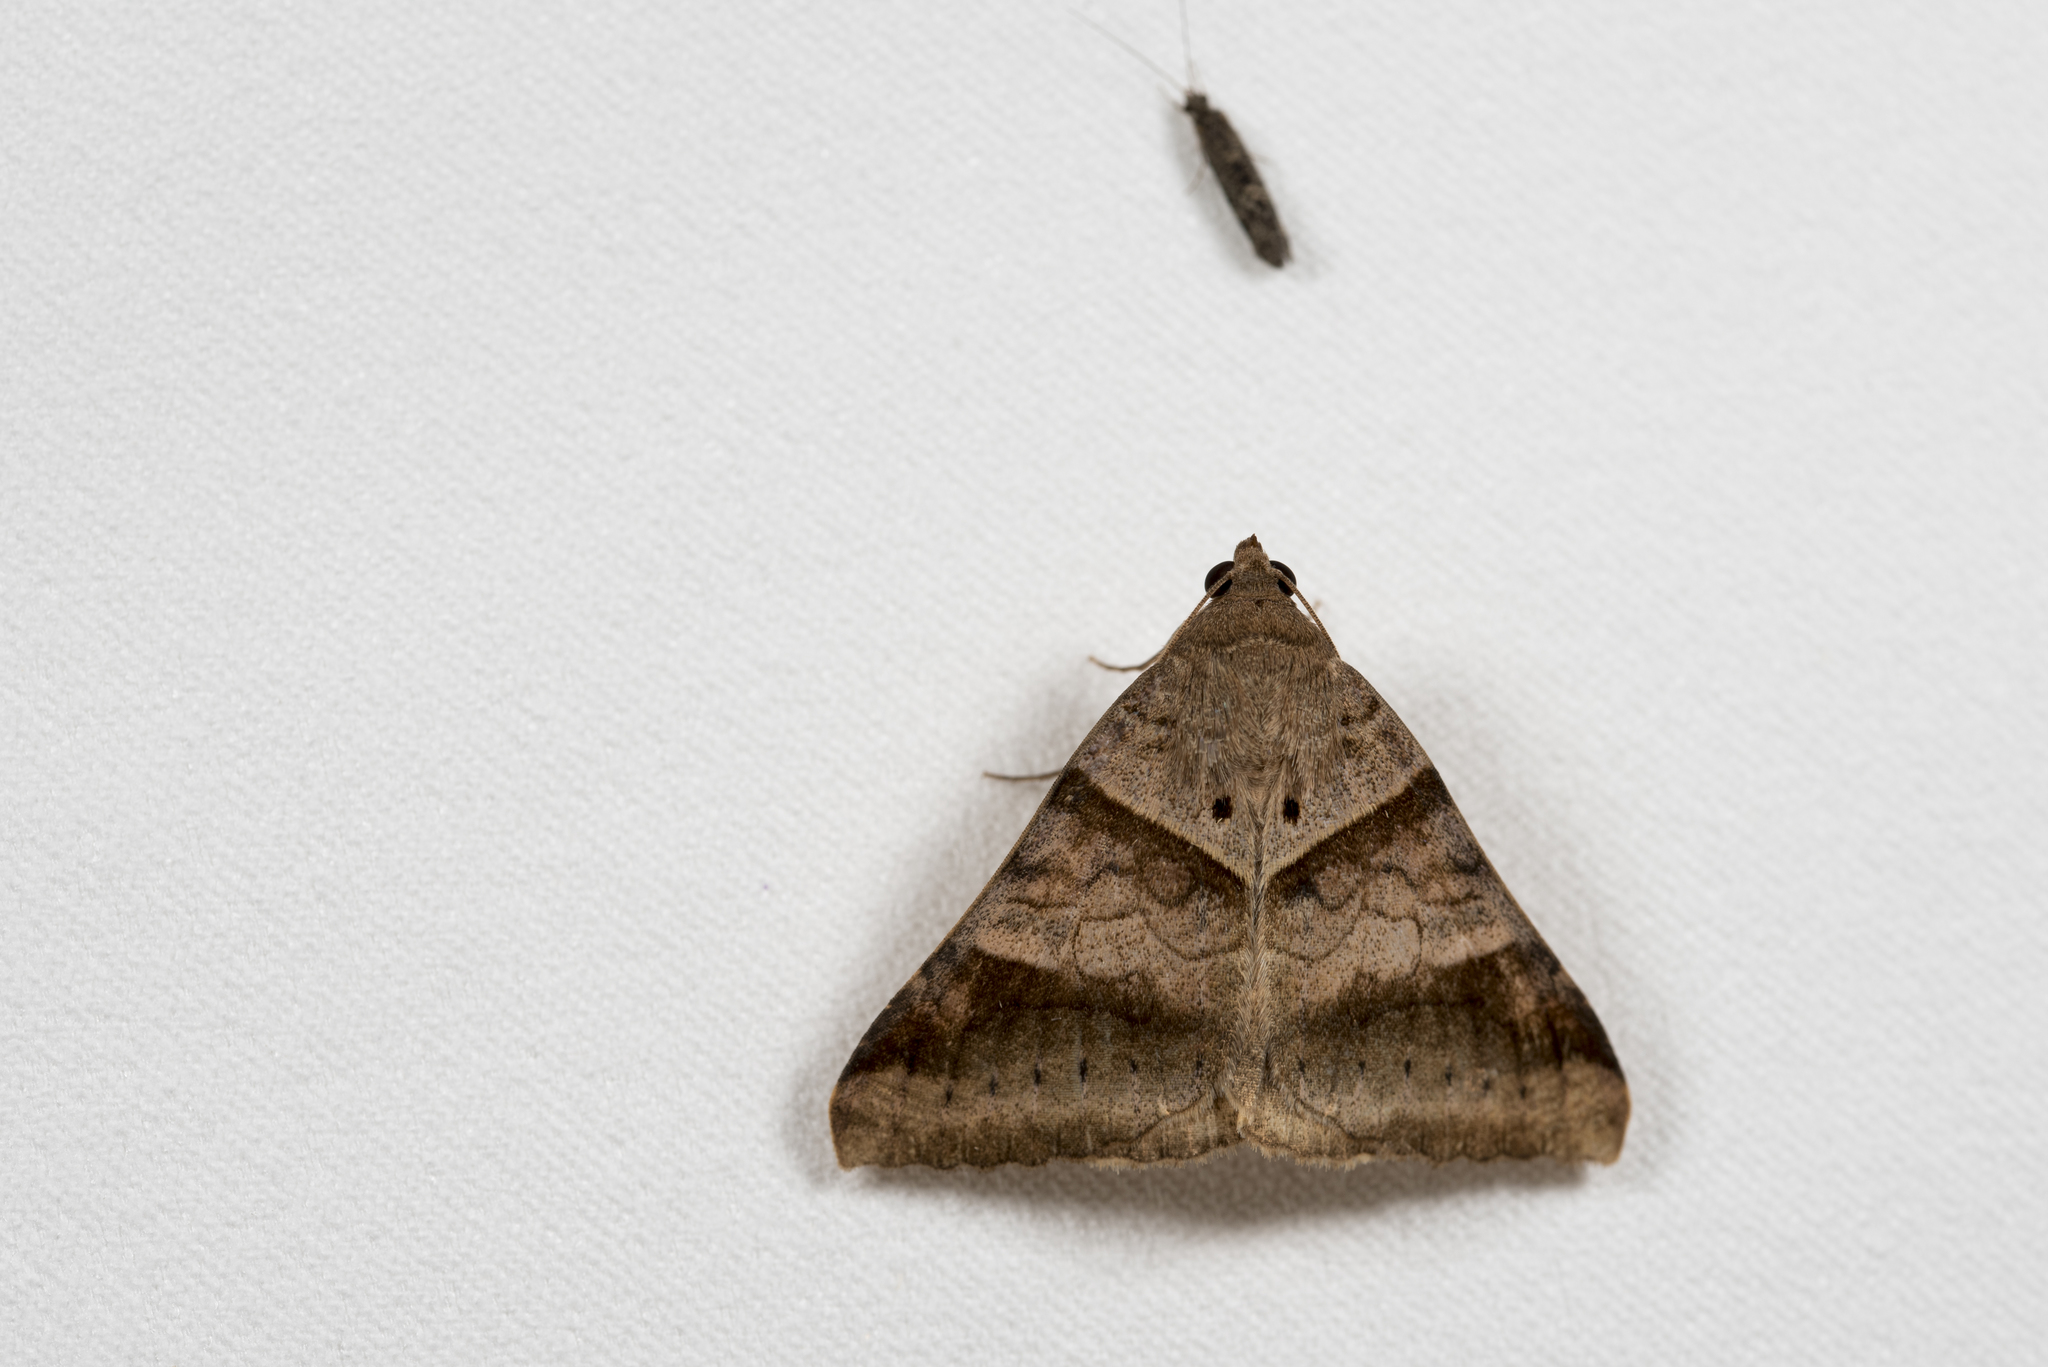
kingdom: Animalia
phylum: Arthropoda
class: Insecta
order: Lepidoptera
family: Erebidae
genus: Mocis
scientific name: Mocis undata
